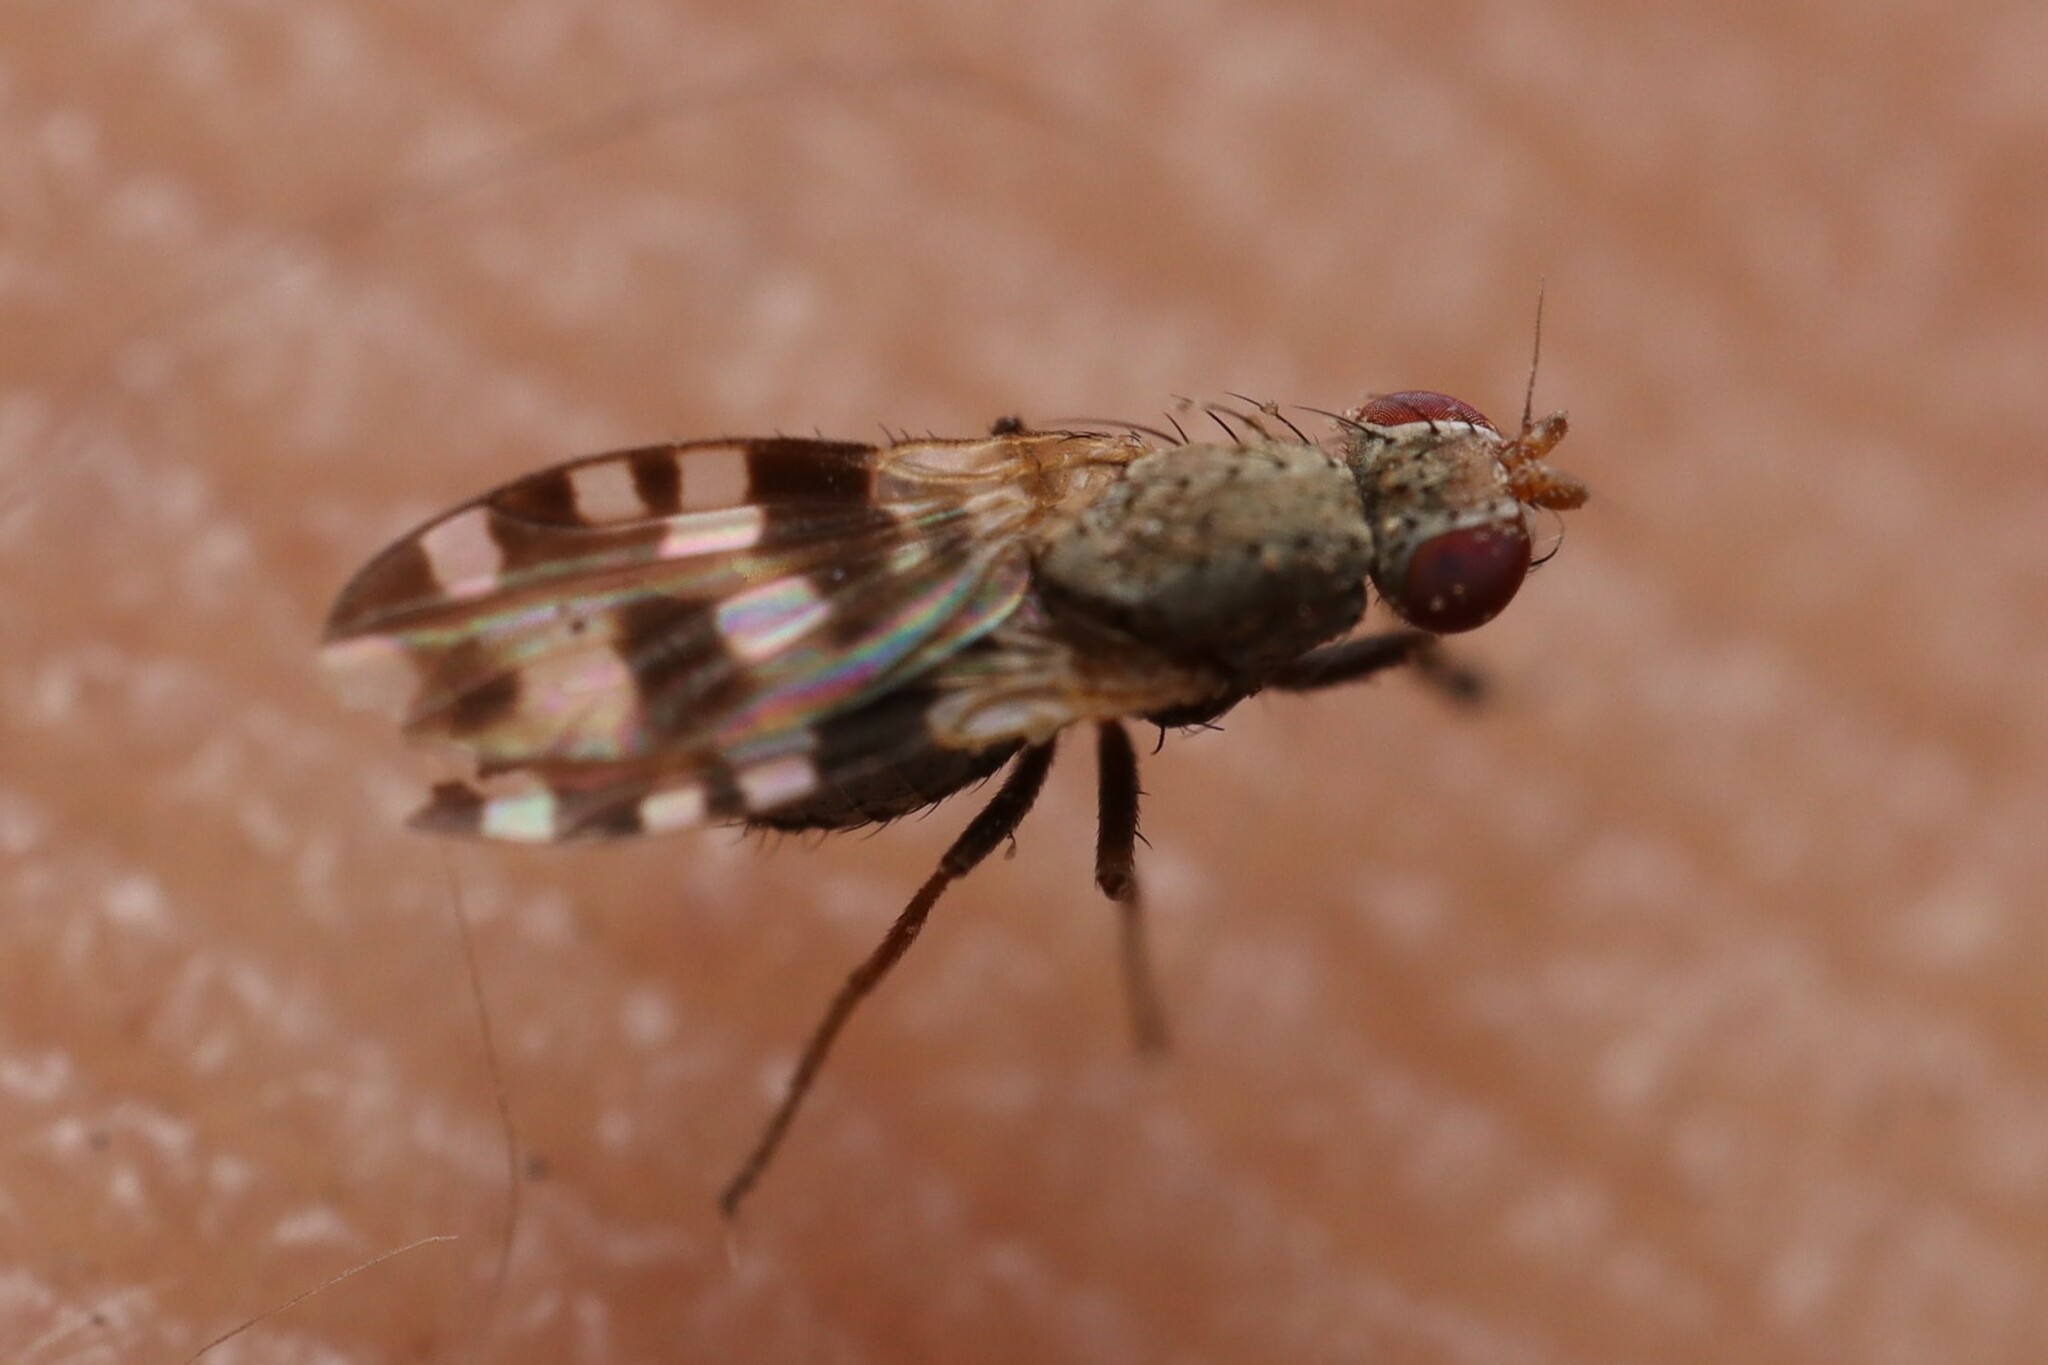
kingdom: Animalia
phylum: Arthropoda
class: Insecta
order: Diptera
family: Heleomyzidae
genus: Trixoscelis
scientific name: Trixoscelis
